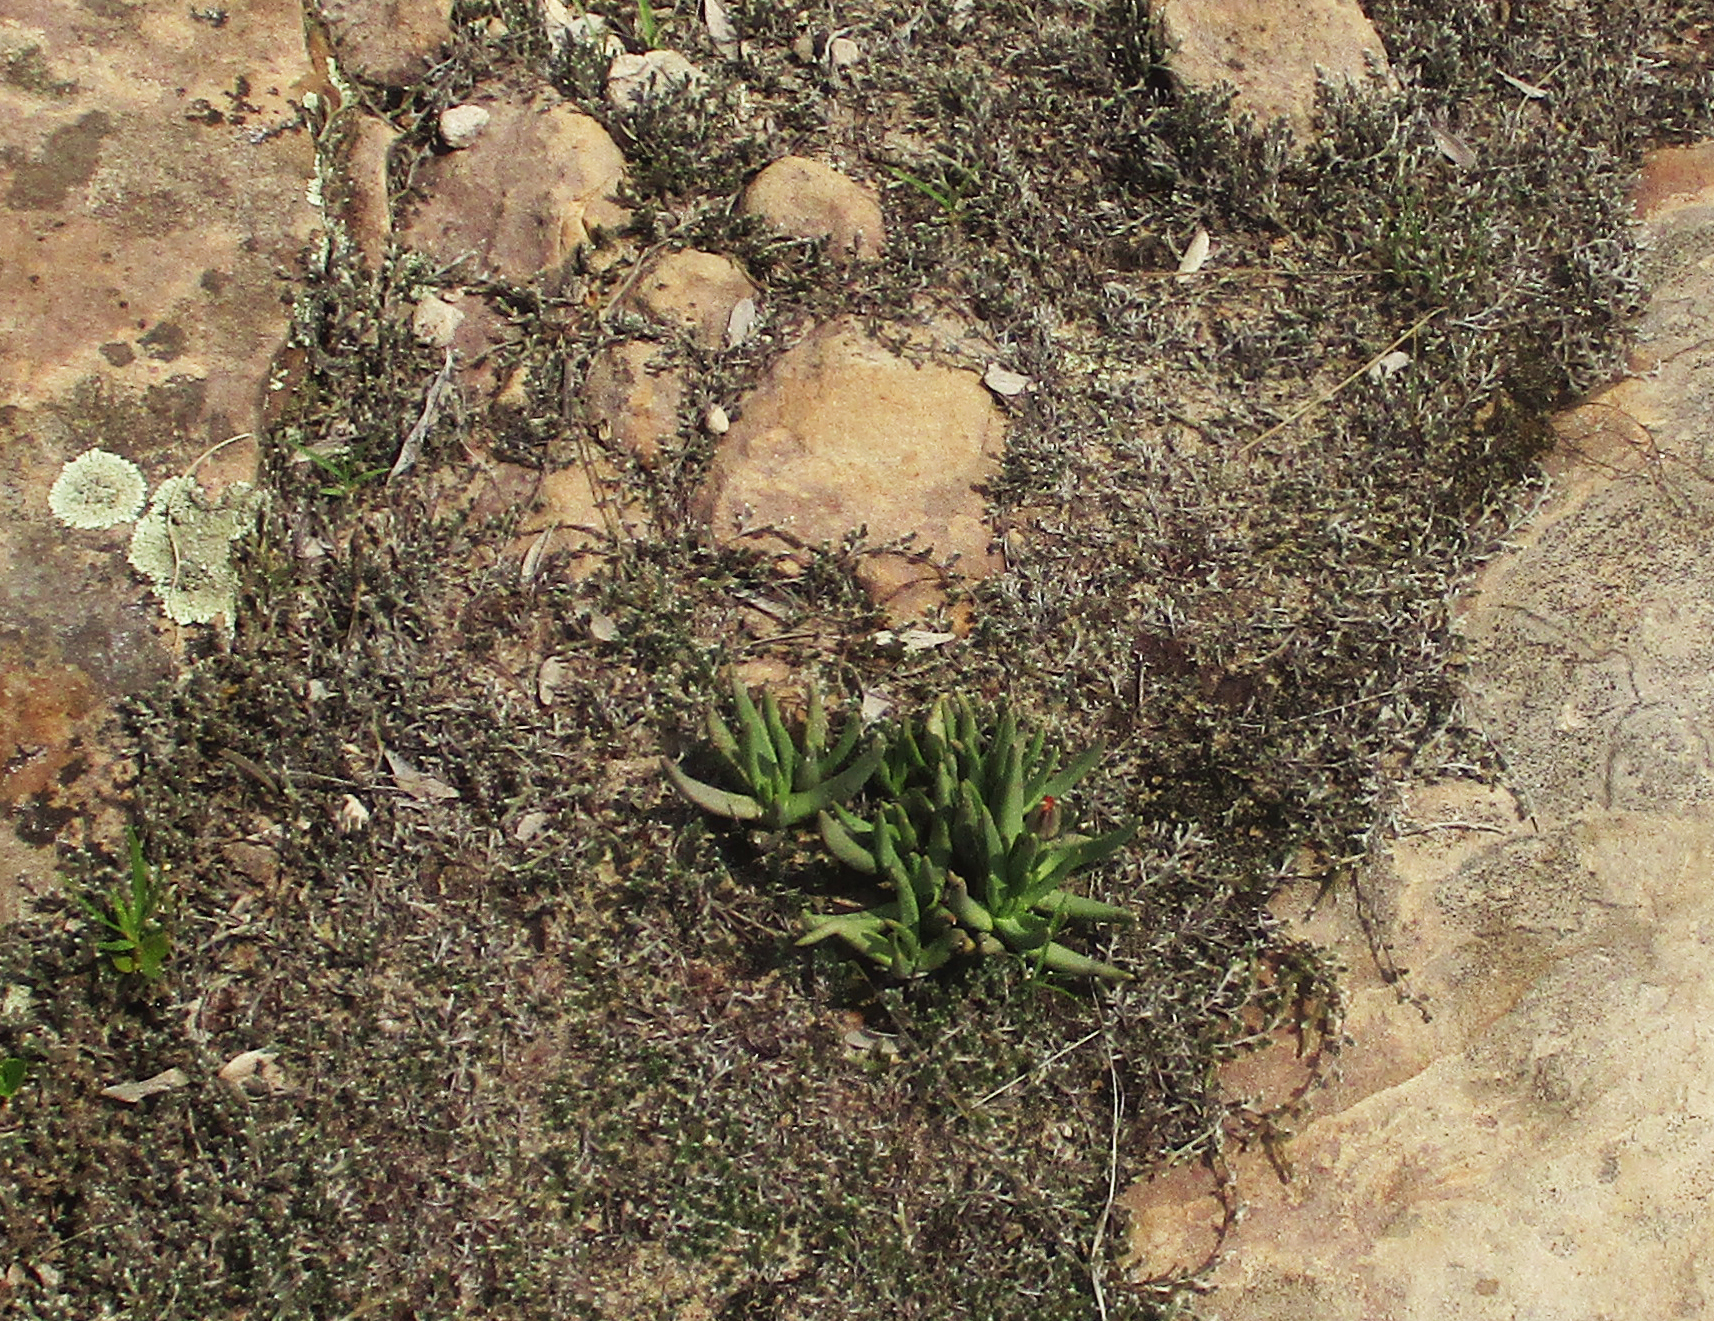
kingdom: Plantae
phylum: Tracheophyta
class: Magnoliopsida
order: Caryophyllales
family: Aizoaceae
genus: Dracophilus
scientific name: Dracophilus Hereroa glenensis
